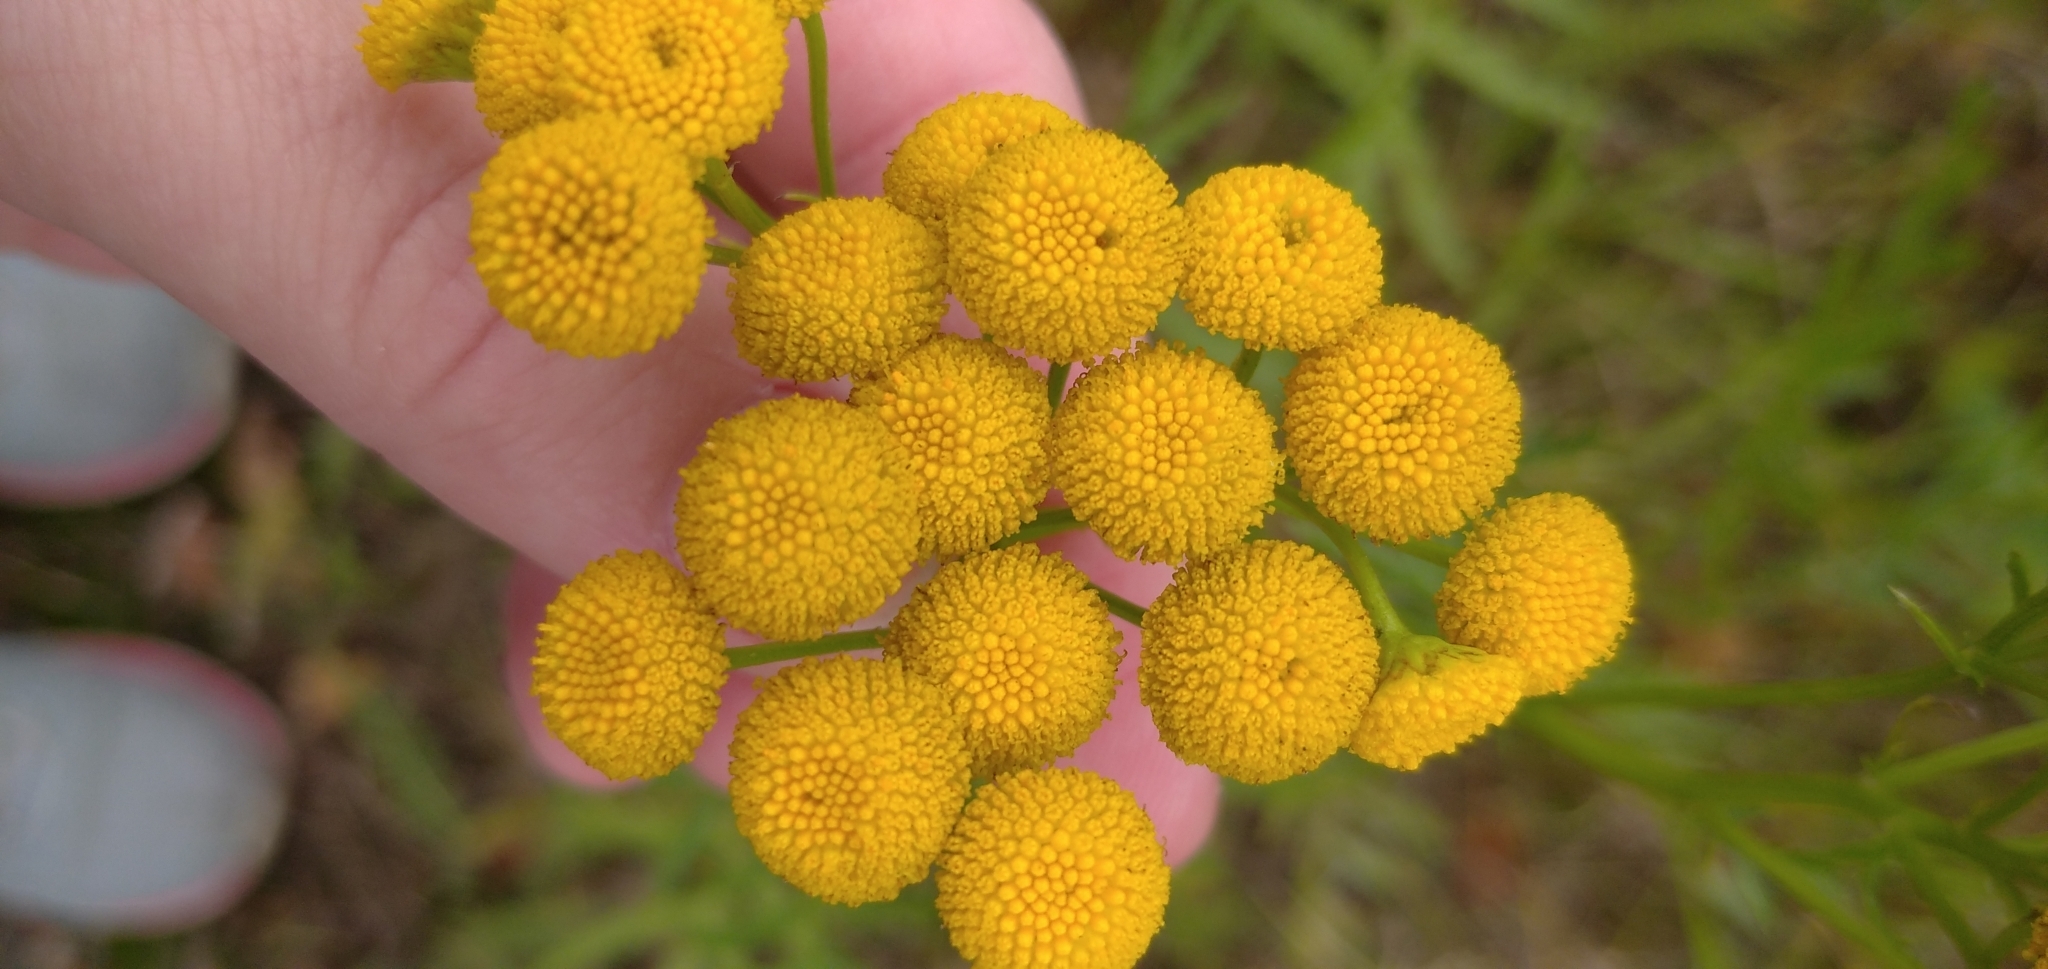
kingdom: Plantae
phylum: Tracheophyta
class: Magnoliopsida
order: Asterales
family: Asteraceae
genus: Tanacetum
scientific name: Tanacetum vulgare
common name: Common tansy
